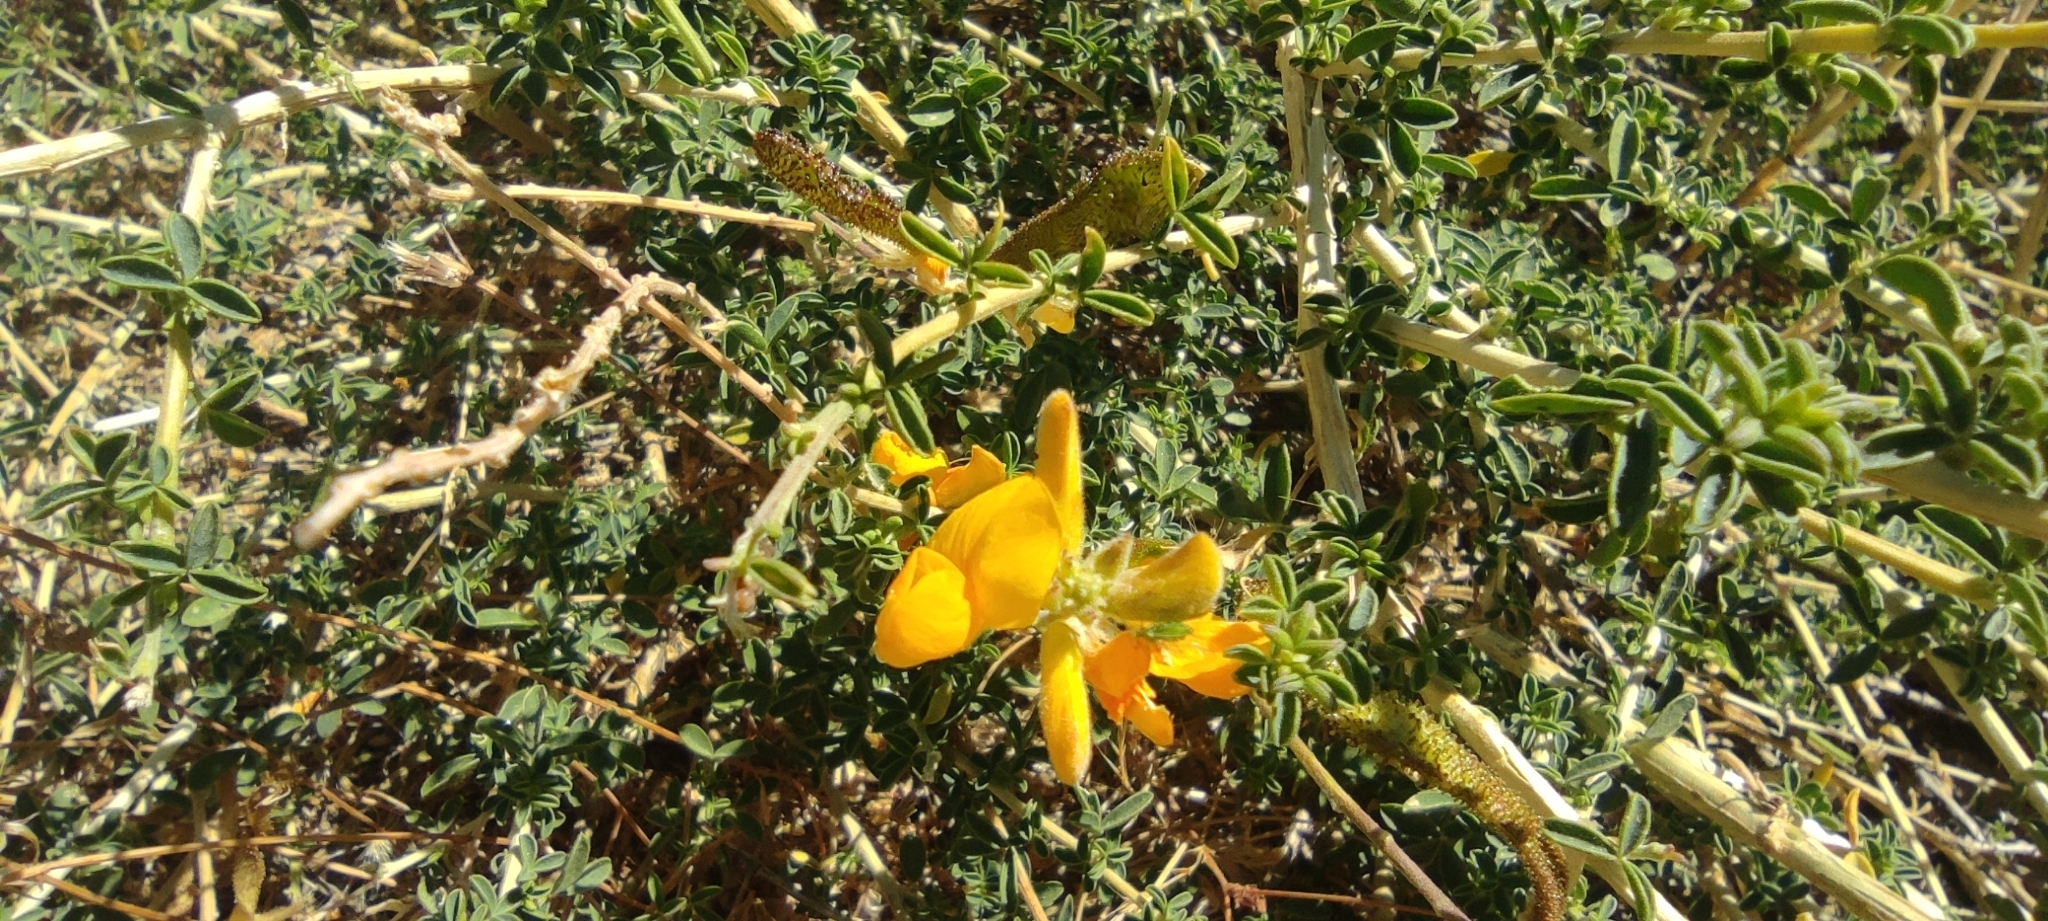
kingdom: Plantae
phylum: Tracheophyta
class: Magnoliopsida
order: Fabales
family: Fabaceae
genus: Adenocarpus
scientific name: Adenocarpus complicatus
